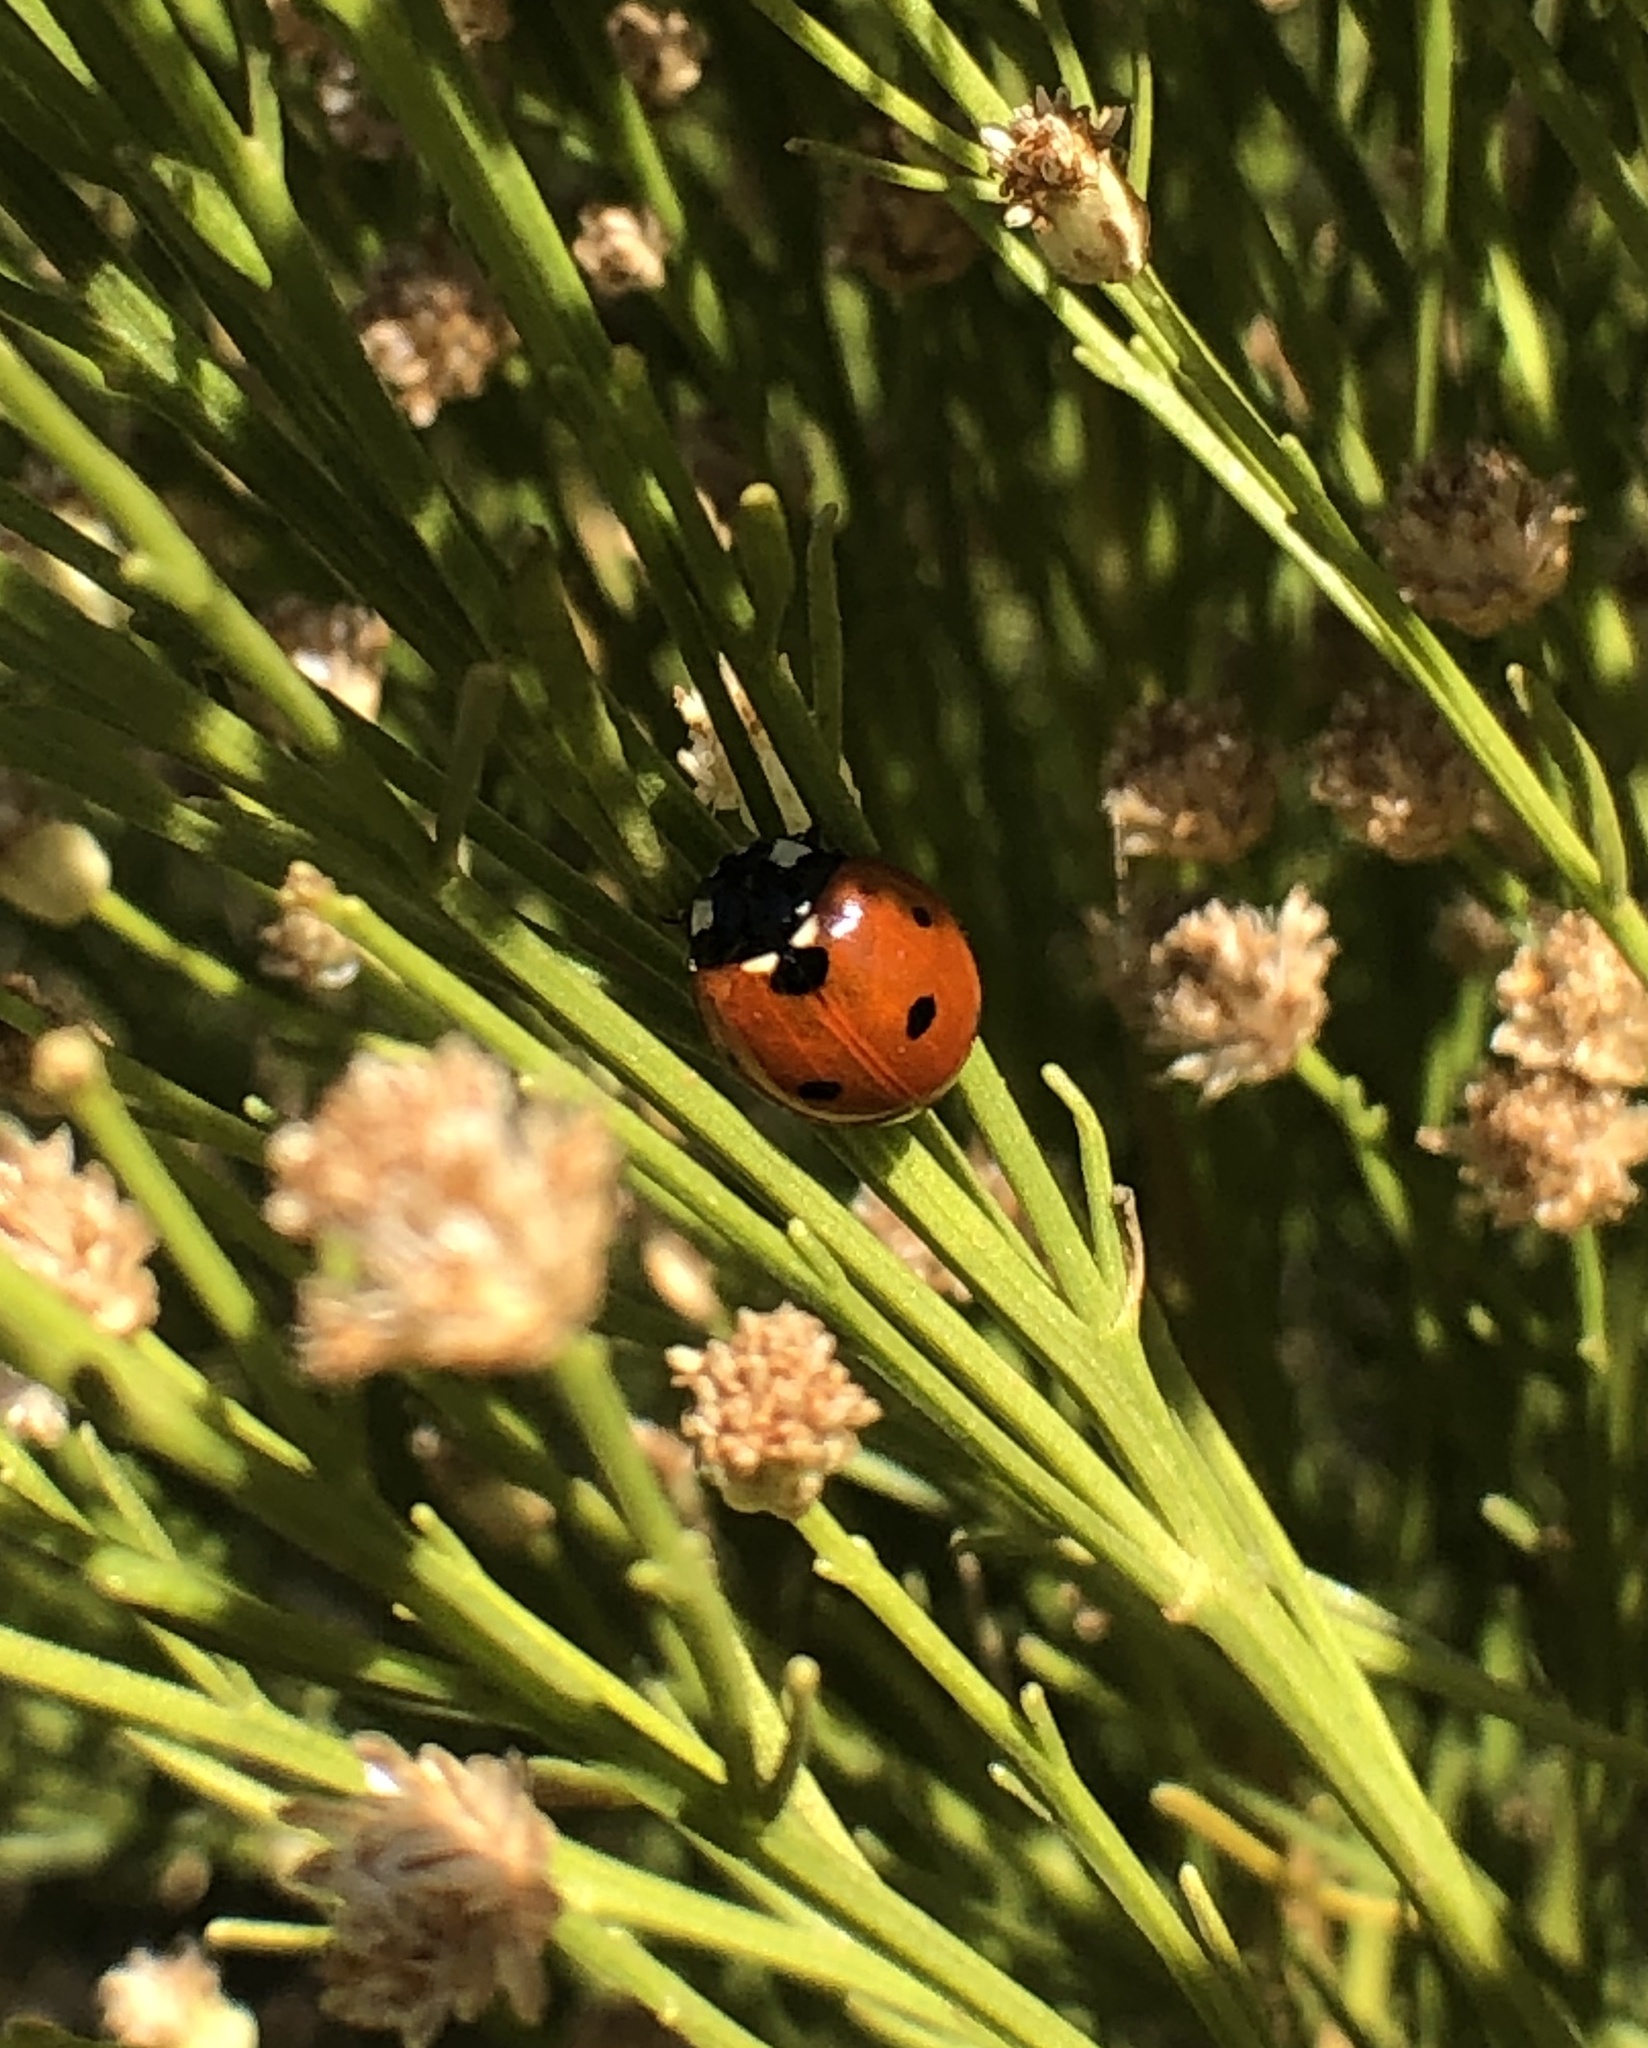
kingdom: Animalia
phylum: Arthropoda
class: Insecta
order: Coleoptera
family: Coccinellidae
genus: Coccinella
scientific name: Coccinella septempunctata
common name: Sevenspotted lady beetle
